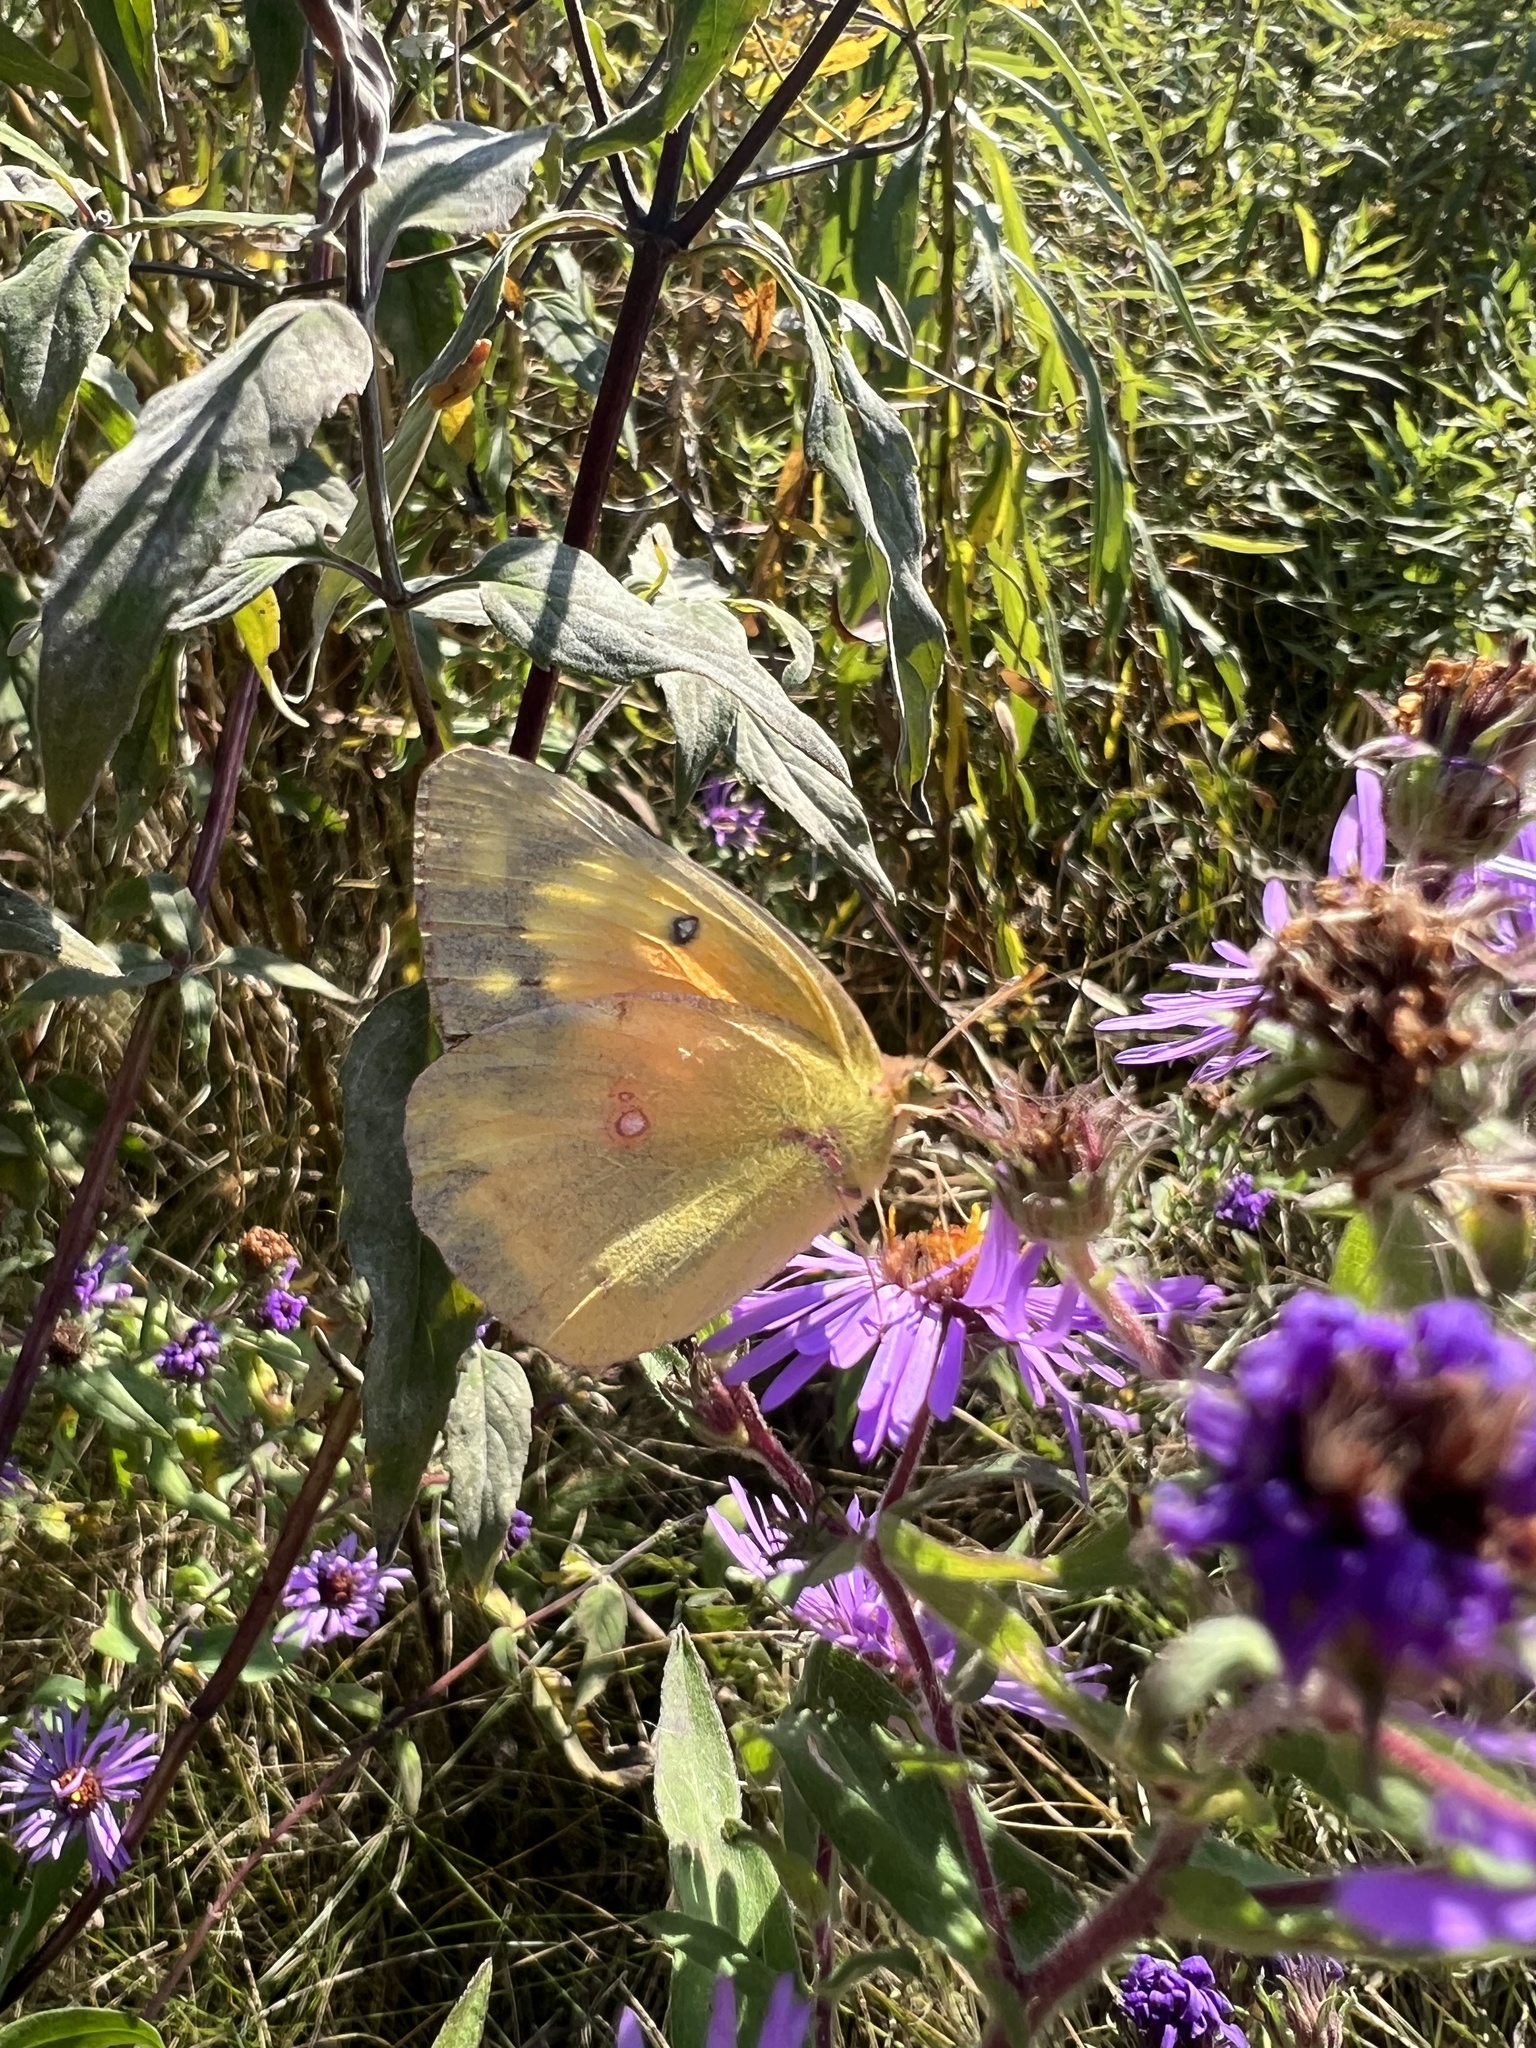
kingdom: Animalia
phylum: Arthropoda
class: Insecta
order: Lepidoptera
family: Pieridae
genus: Colias
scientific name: Colias eurytheme
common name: Alfalfa butterfly
